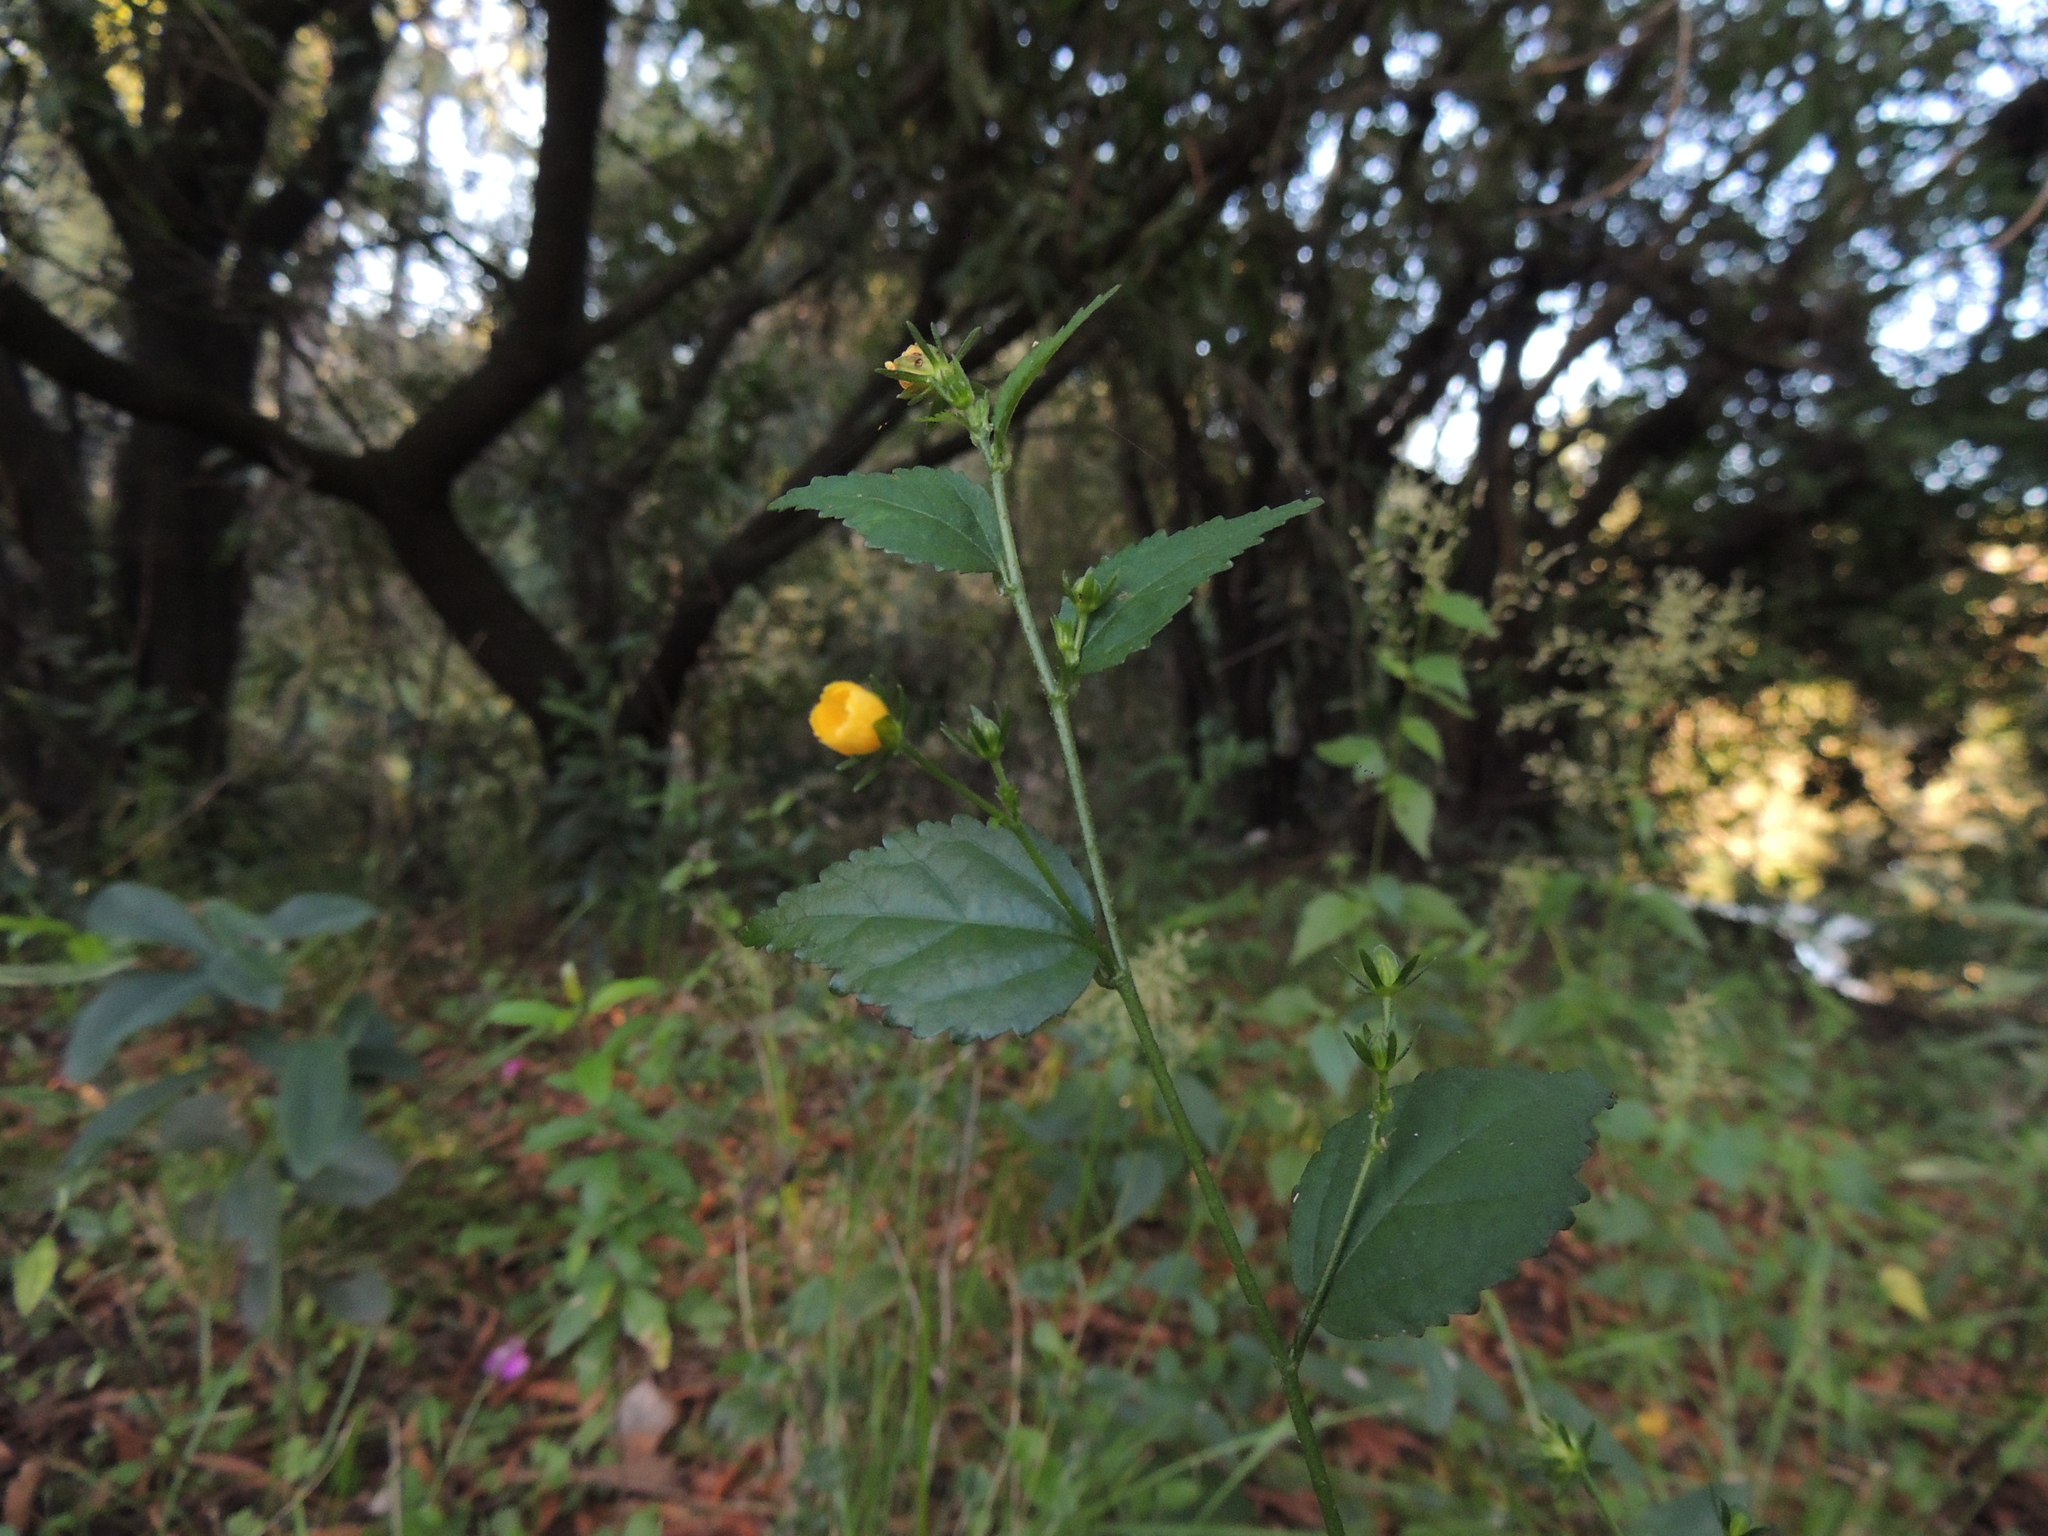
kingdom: Plantae
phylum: Tracheophyta
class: Magnoliopsida
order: Malvales
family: Malvaceae
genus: Pavonia
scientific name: Pavonia sepium
